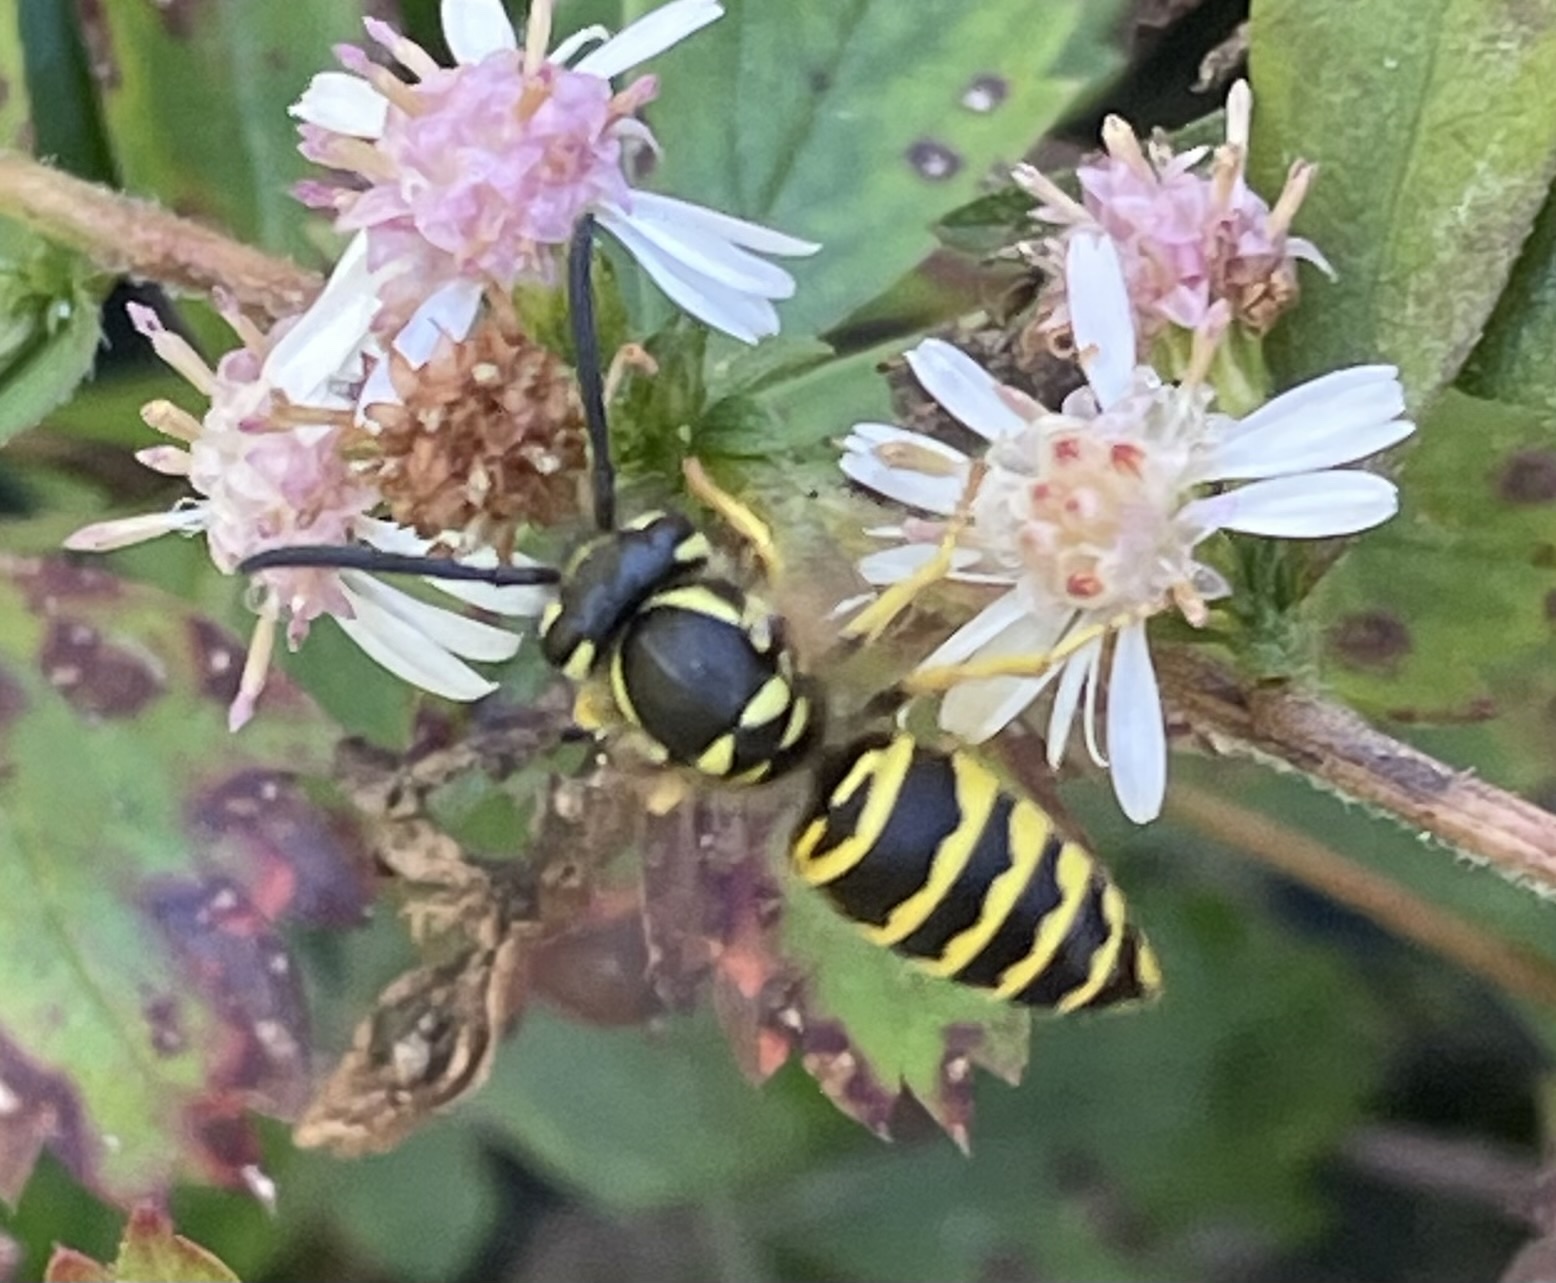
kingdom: Animalia
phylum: Arthropoda
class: Insecta
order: Hymenoptera
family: Vespidae
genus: Vespula
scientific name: Vespula maculifrons
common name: Eastern yellowjacket
